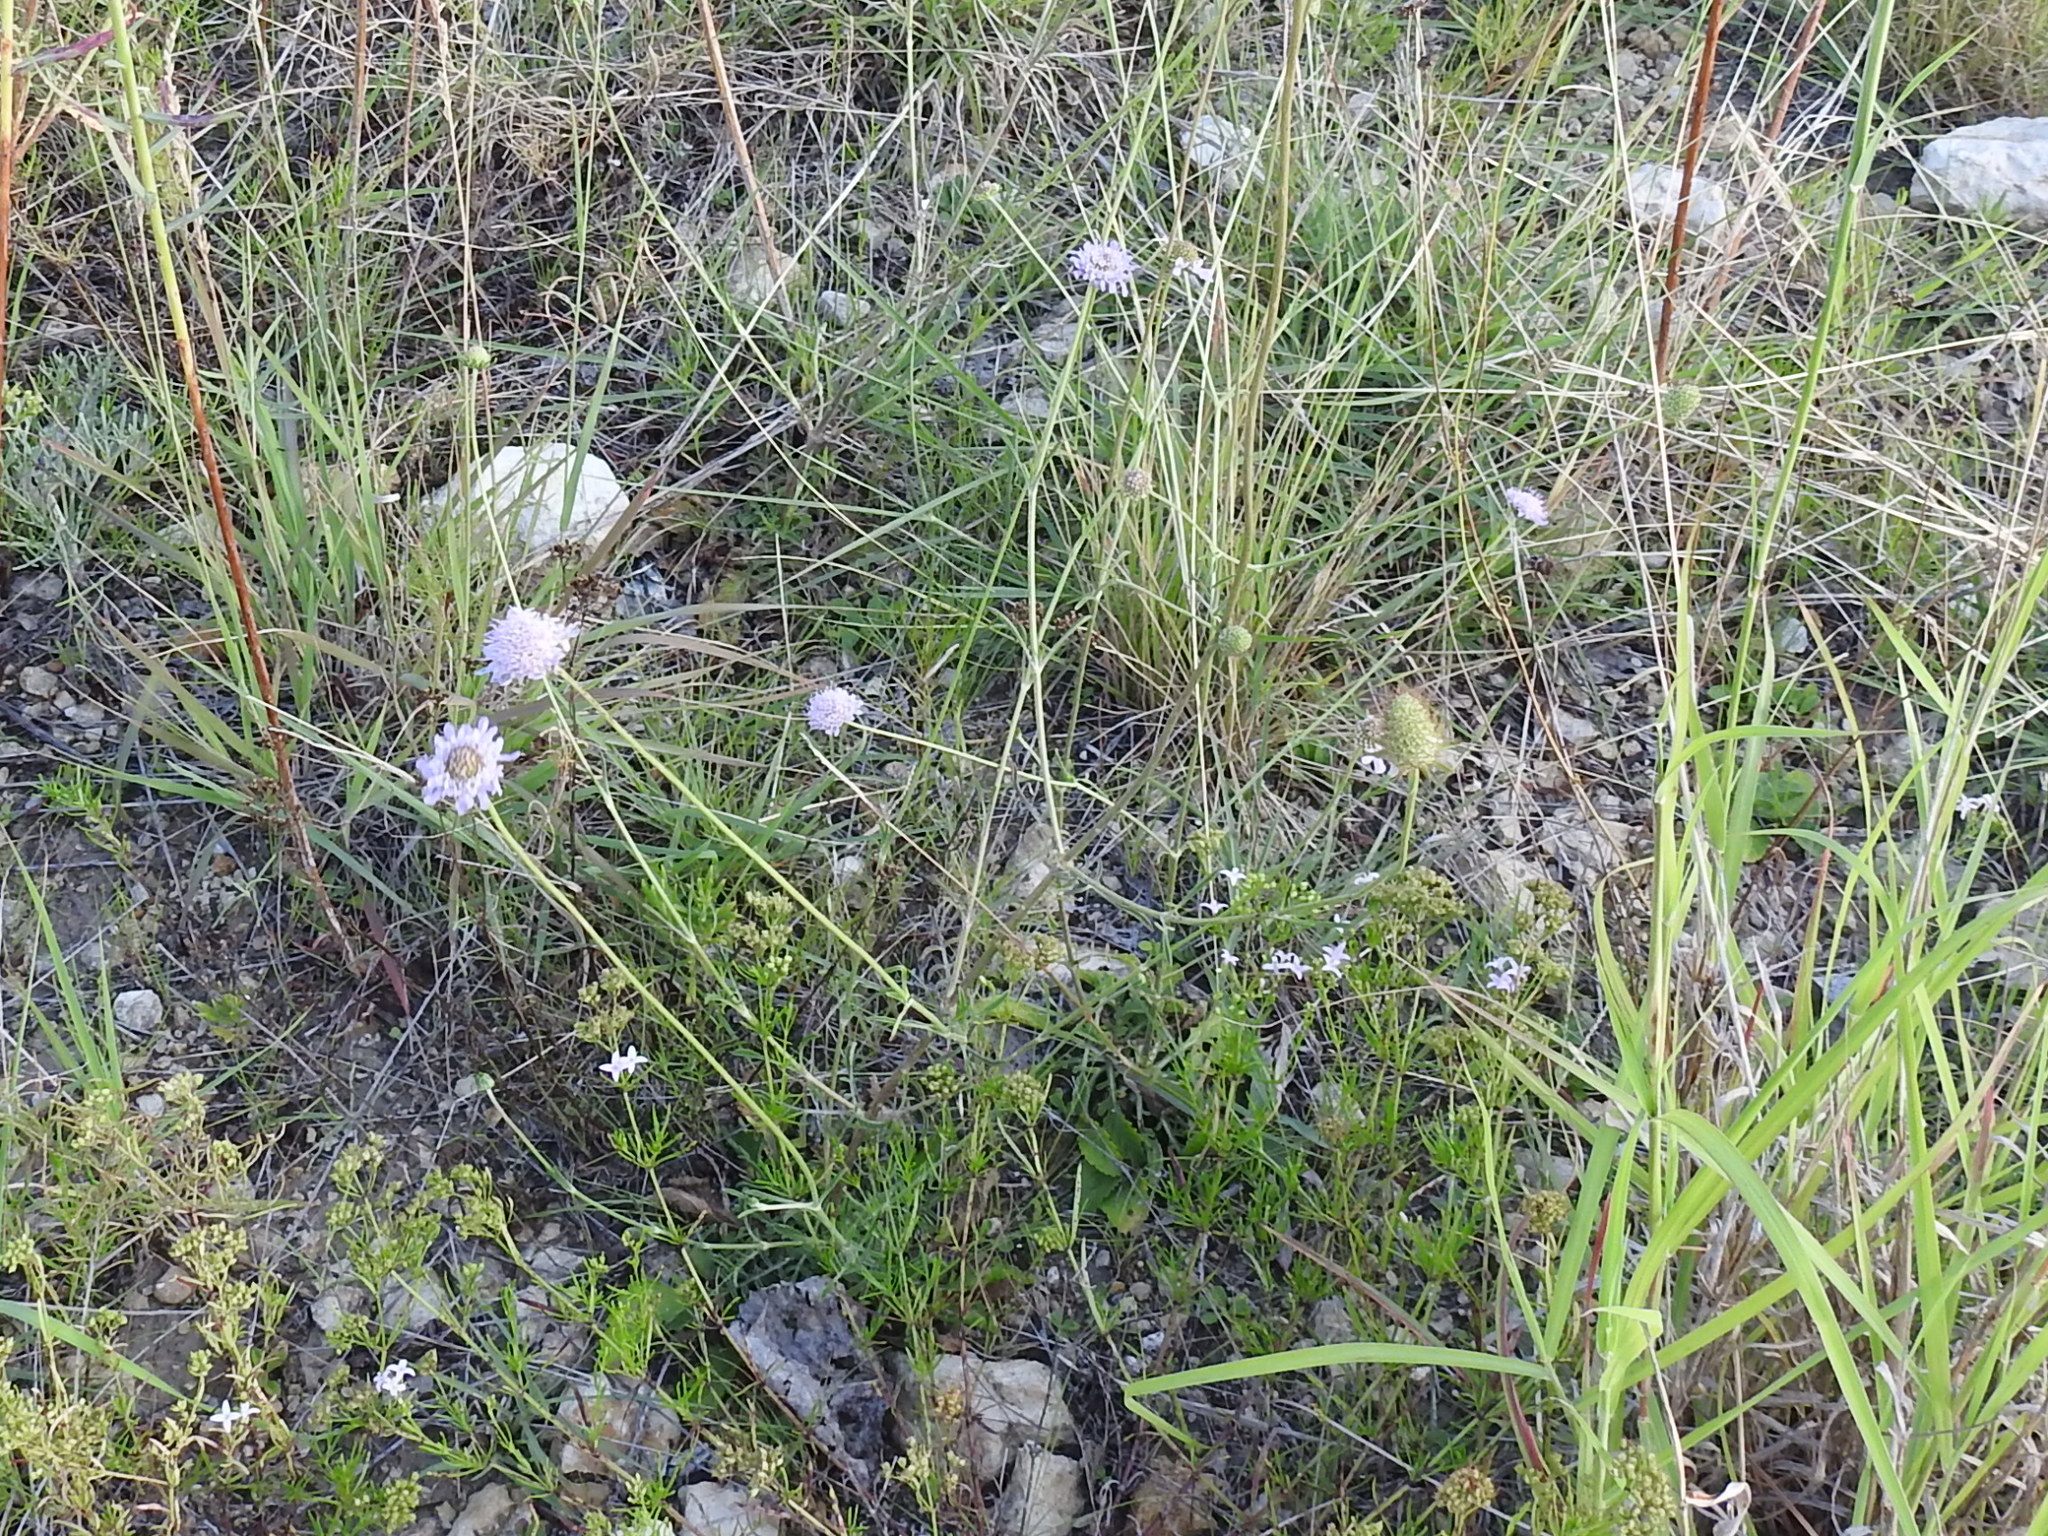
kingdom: Plantae
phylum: Tracheophyta
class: Magnoliopsida
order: Dipsacales
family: Caprifoliaceae
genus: Sixalix
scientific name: Sixalix atropurpurea
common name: Sweet scabious
